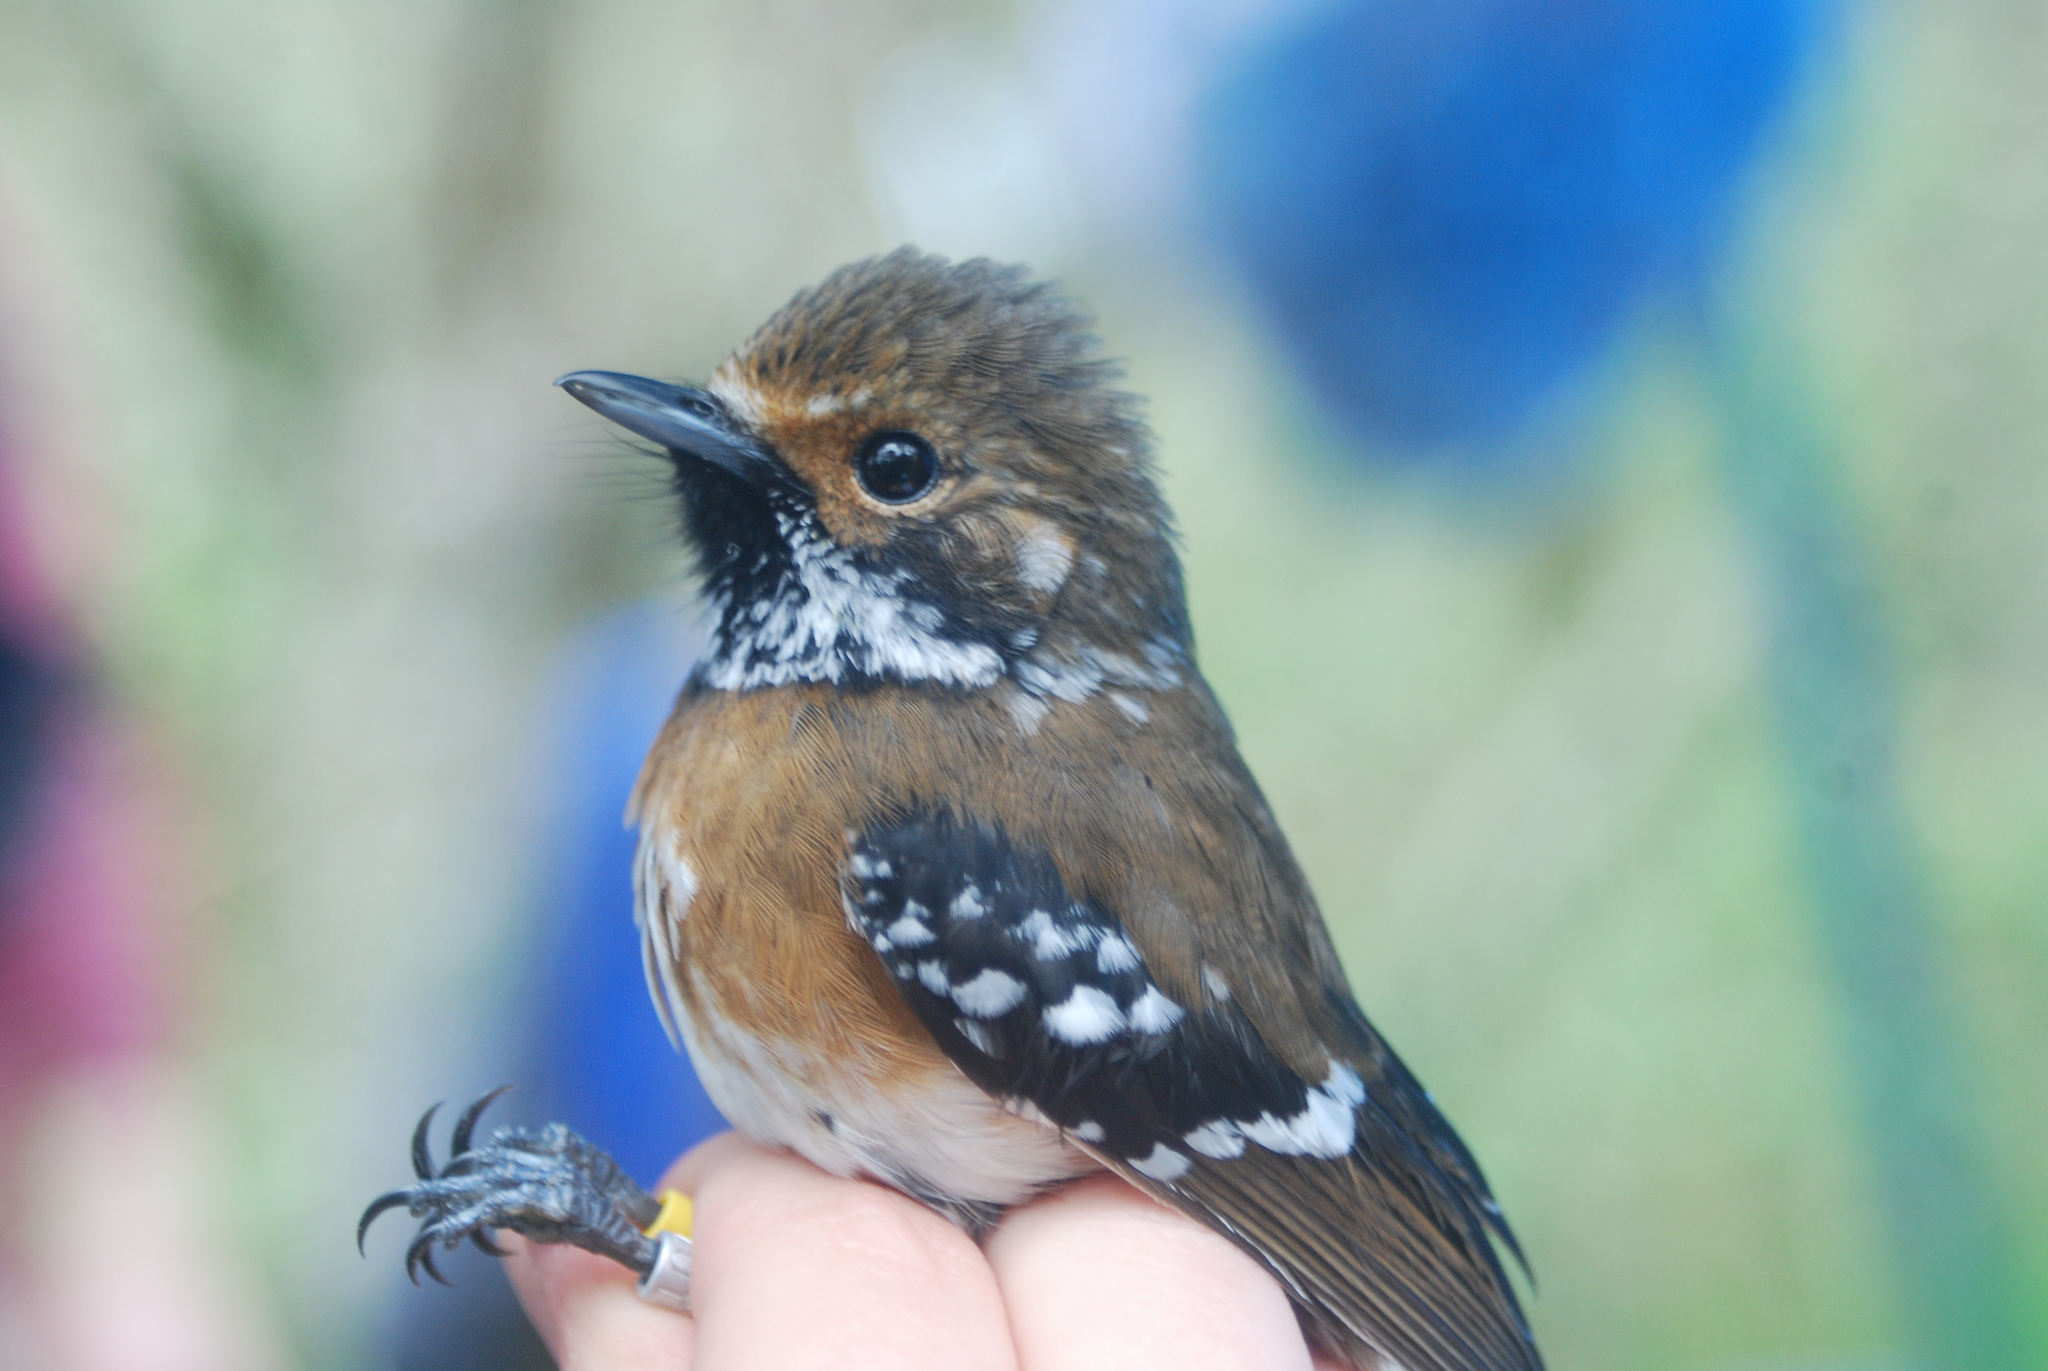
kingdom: Animalia
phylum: Chordata
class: Aves
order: Passeriformes
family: Monarchidae
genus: Chasiempis
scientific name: Chasiempis sandwichensis
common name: Hawaii elepaio
